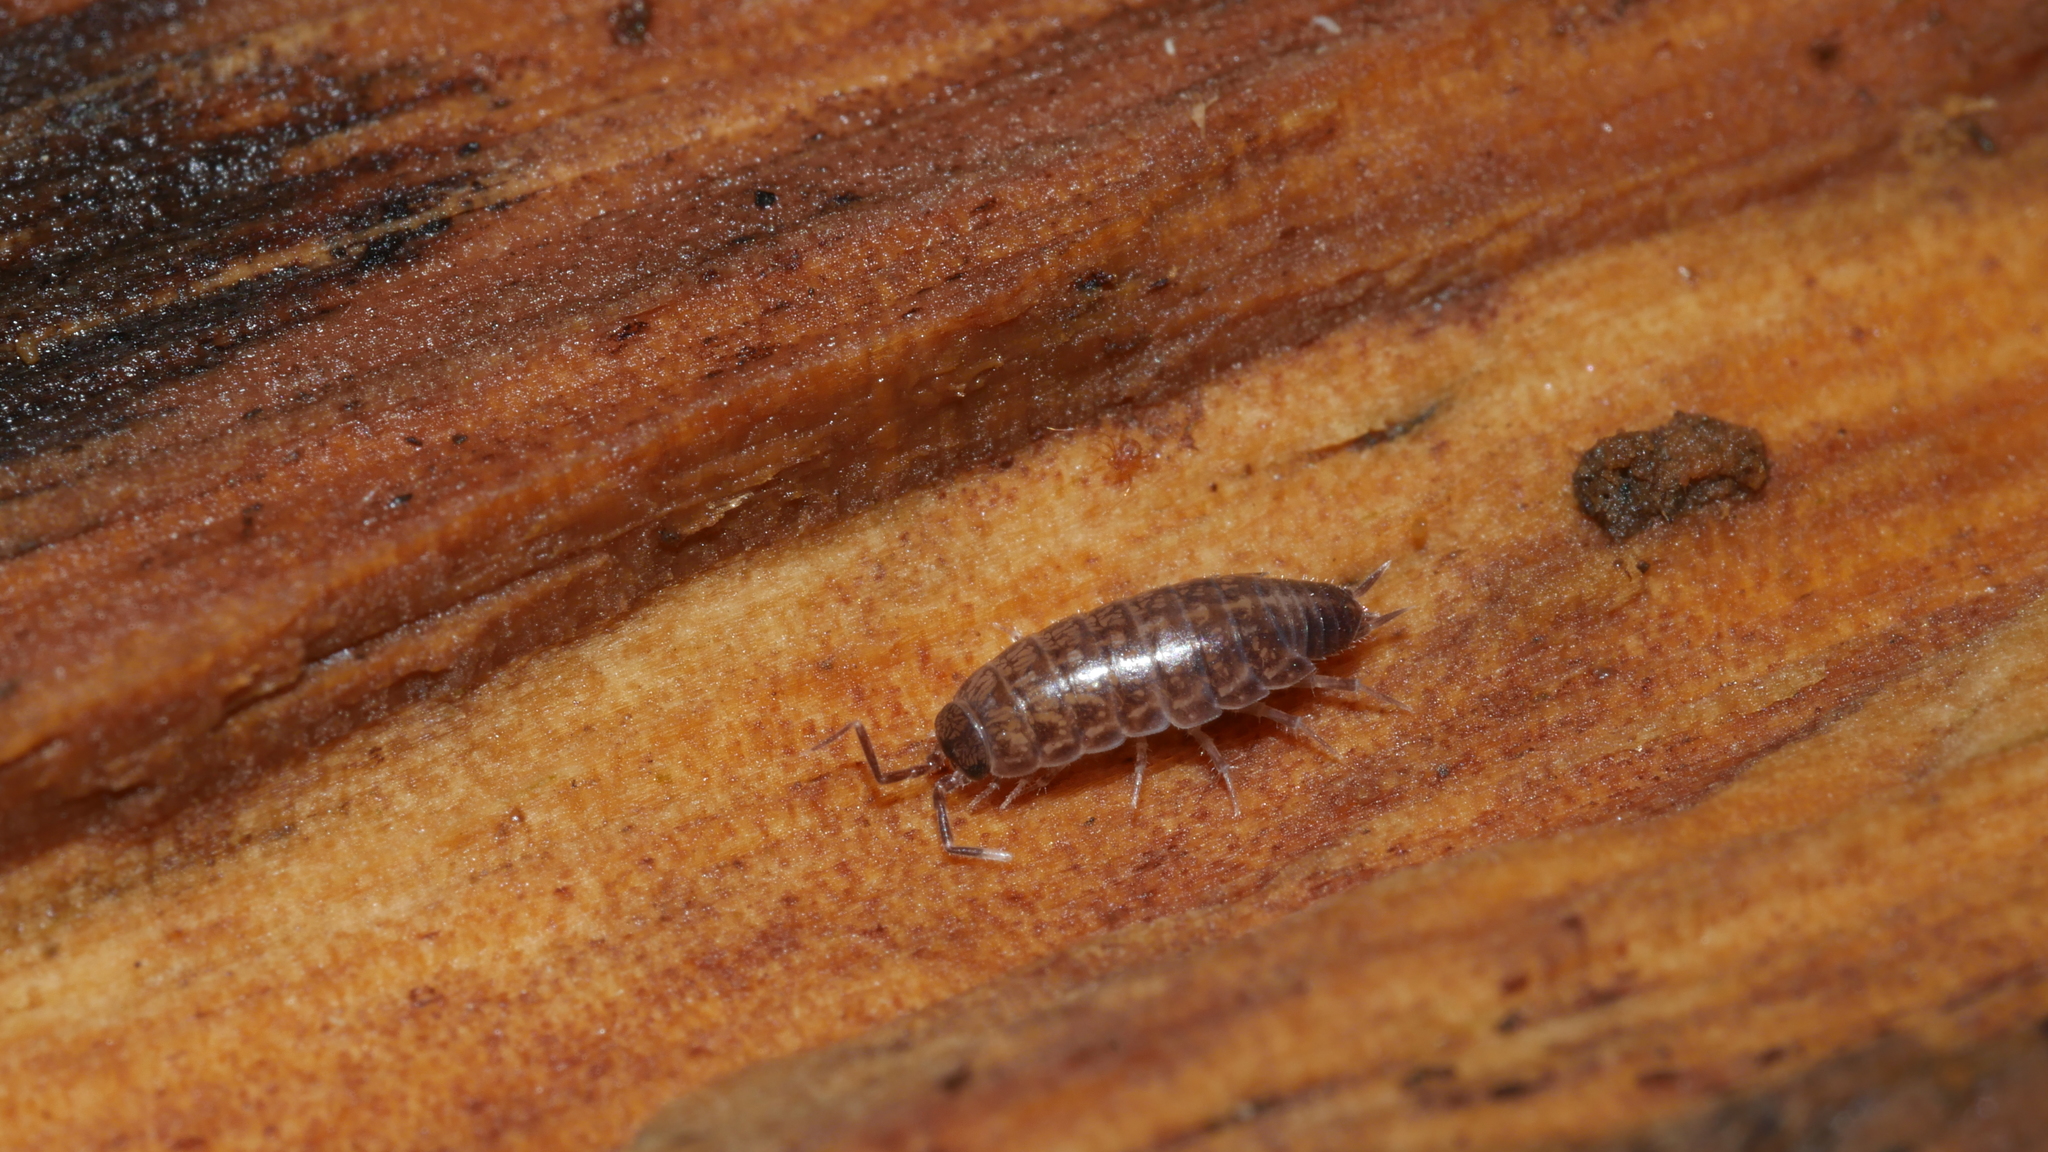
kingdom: Animalia
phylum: Arthropoda
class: Malacostraca
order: Isopoda
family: Philosciidae
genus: Chaetophiloscia
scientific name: Chaetophiloscia sicula
